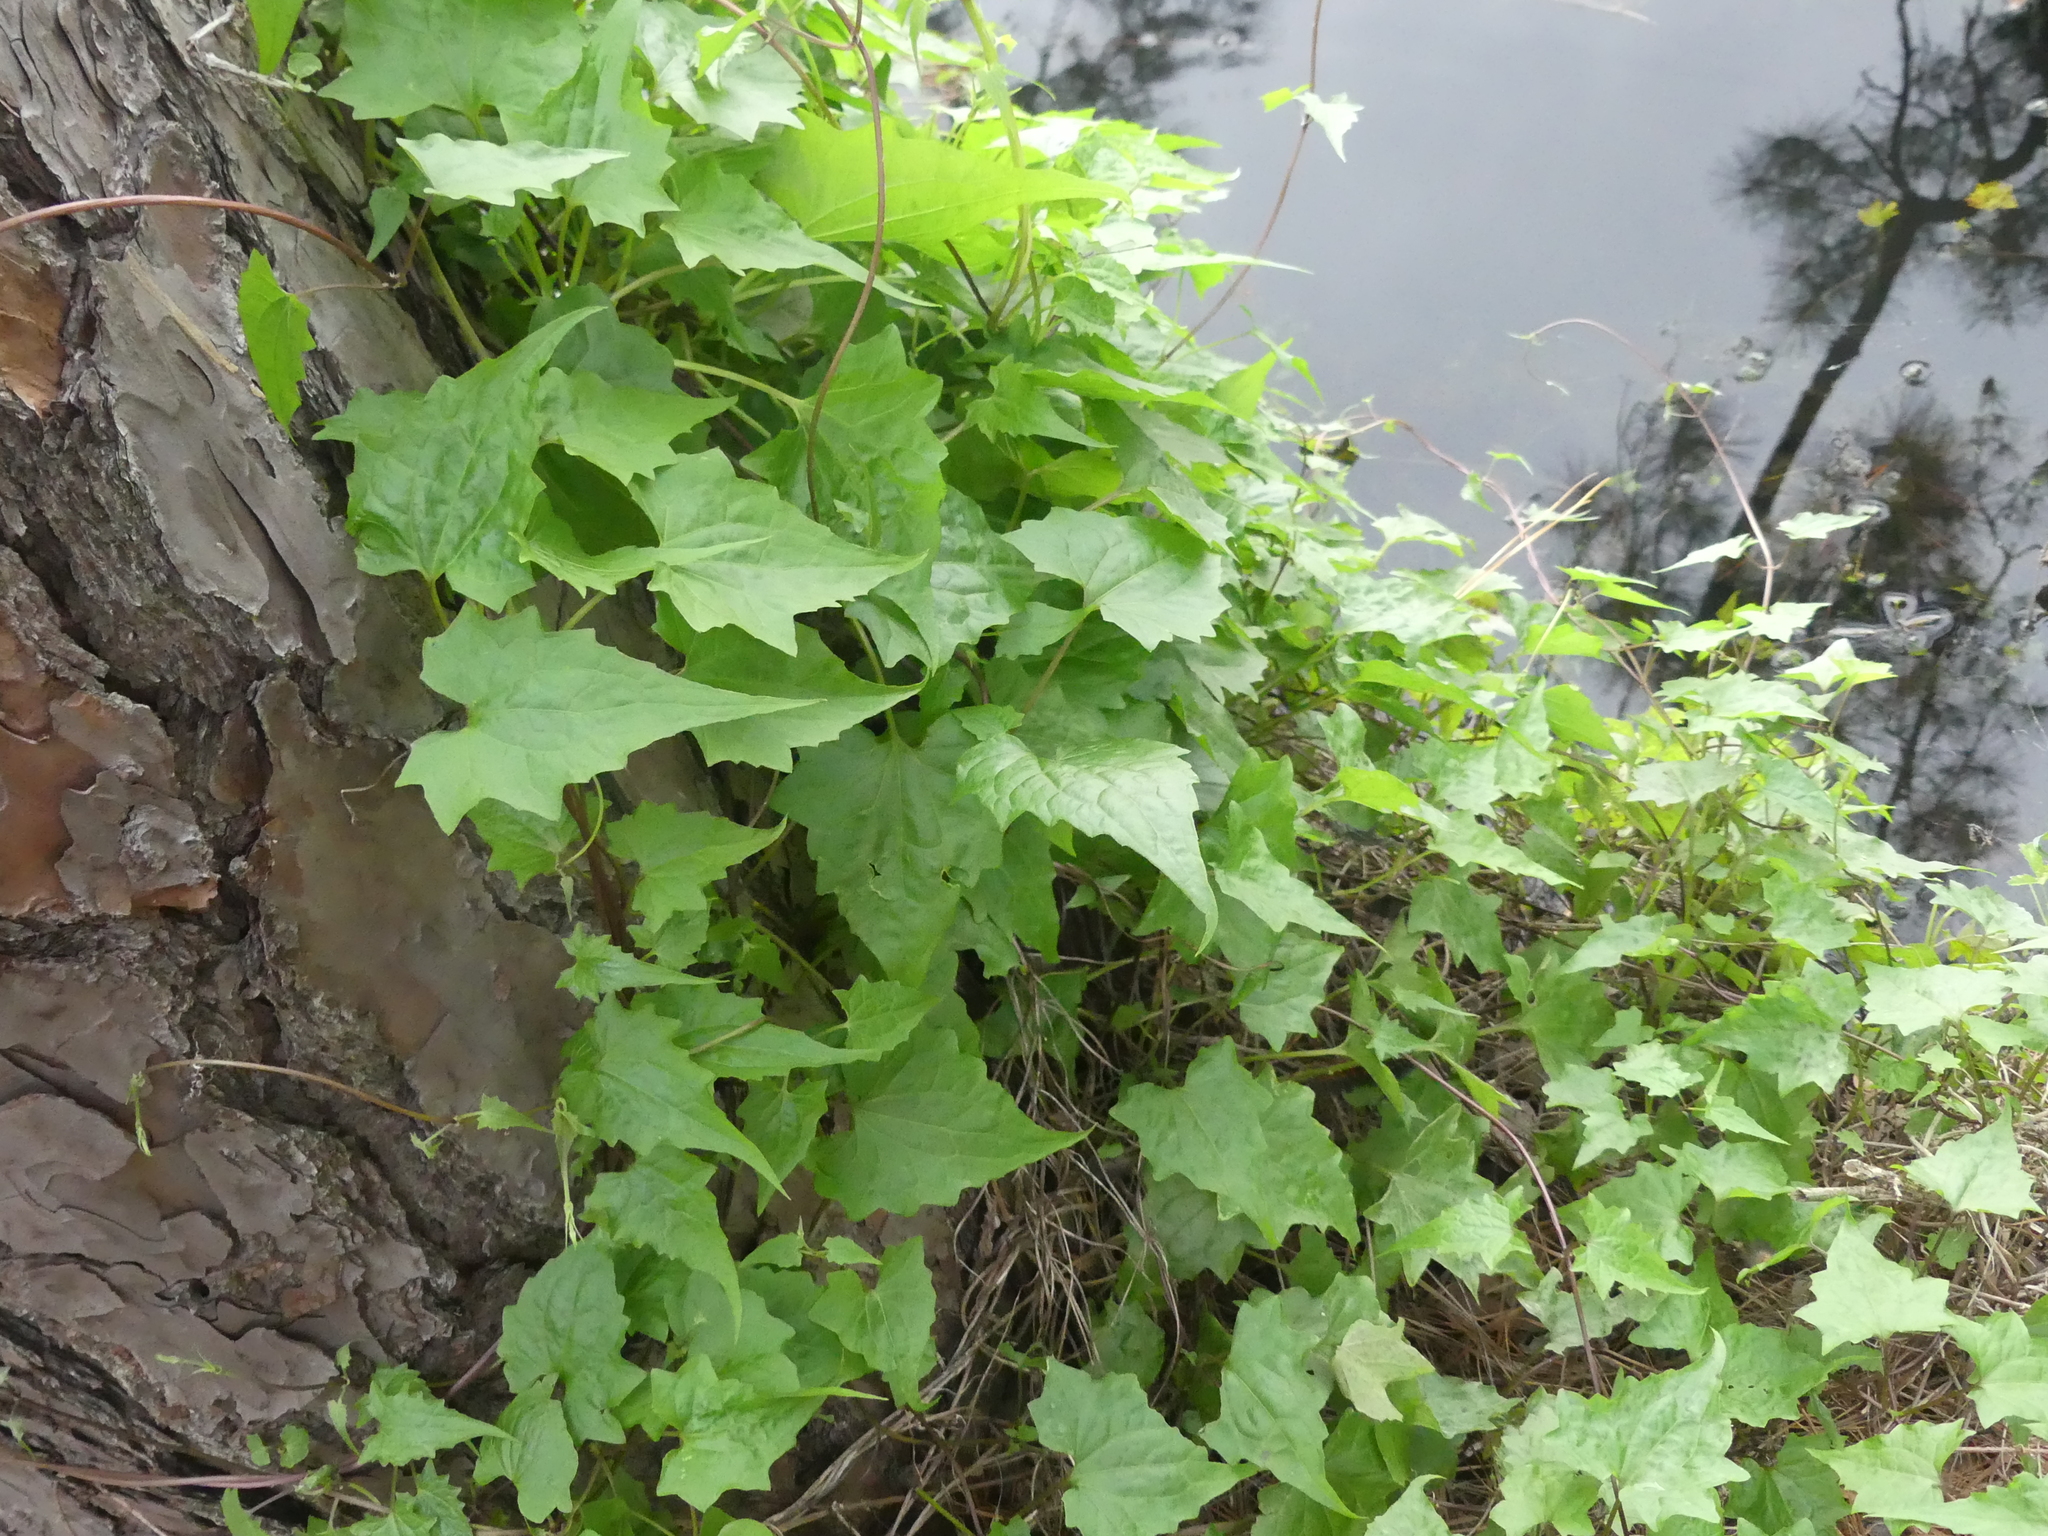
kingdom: Plantae
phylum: Tracheophyta
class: Magnoliopsida
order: Asterales
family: Asteraceae
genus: Mikania
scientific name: Mikania scandens
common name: Climbing hempvine
